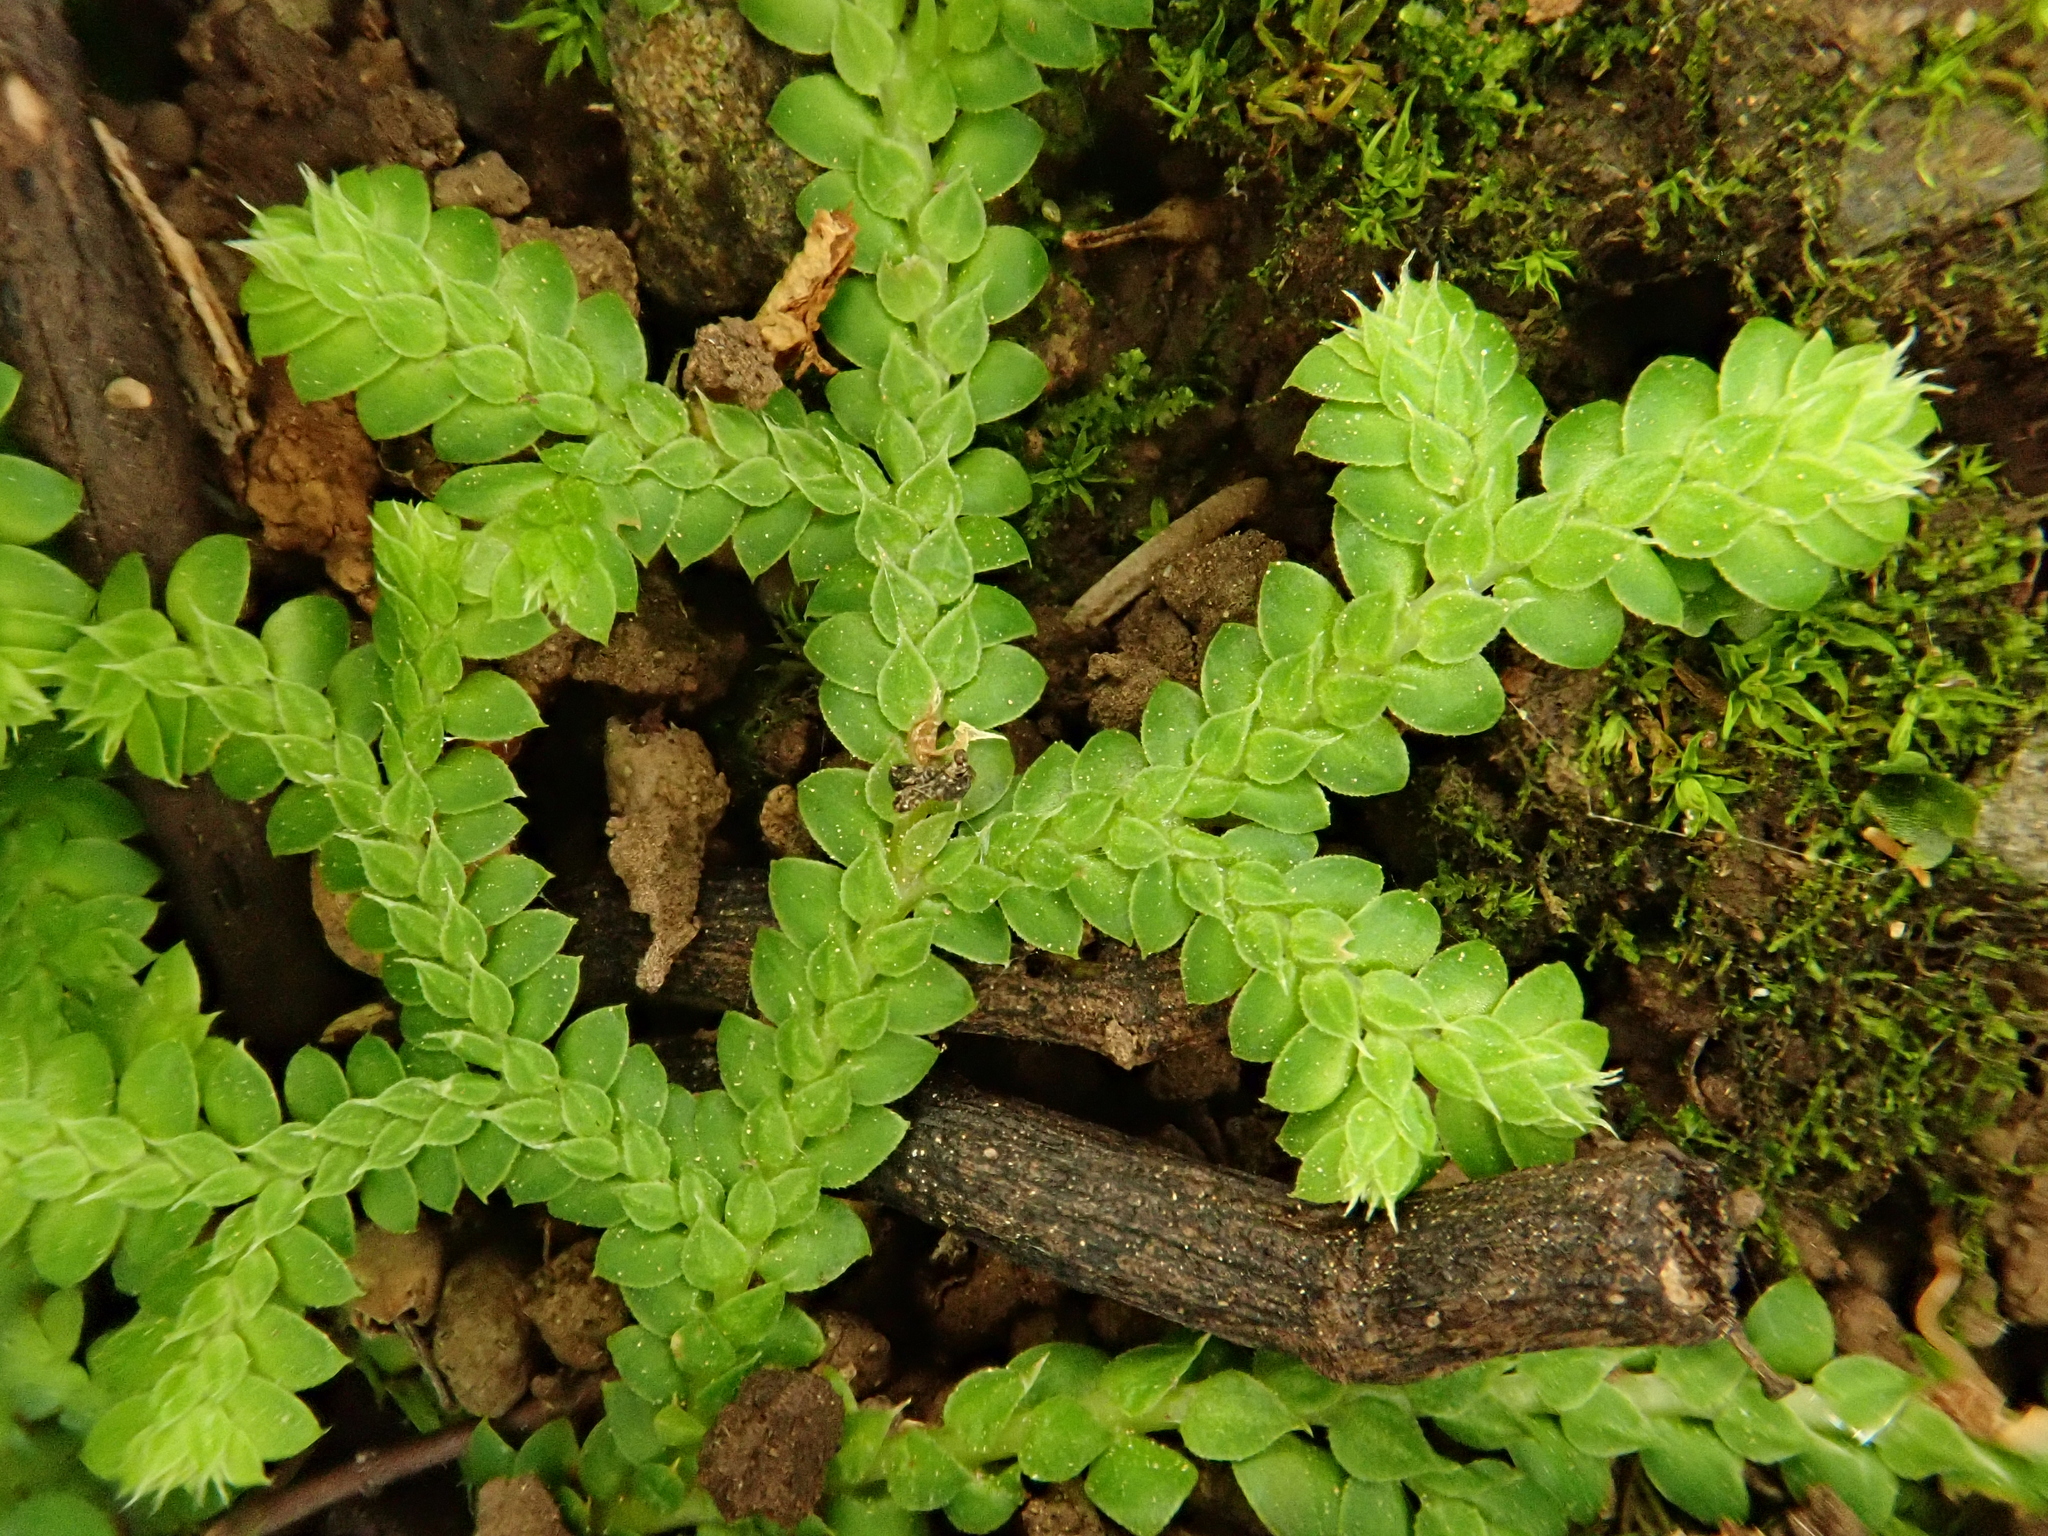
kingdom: Plantae
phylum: Tracheophyta
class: Lycopodiopsida
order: Selaginellales
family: Selaginellaceae
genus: Selaginella
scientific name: Selaginella denticulata
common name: Toothed-leaved clubmoss
